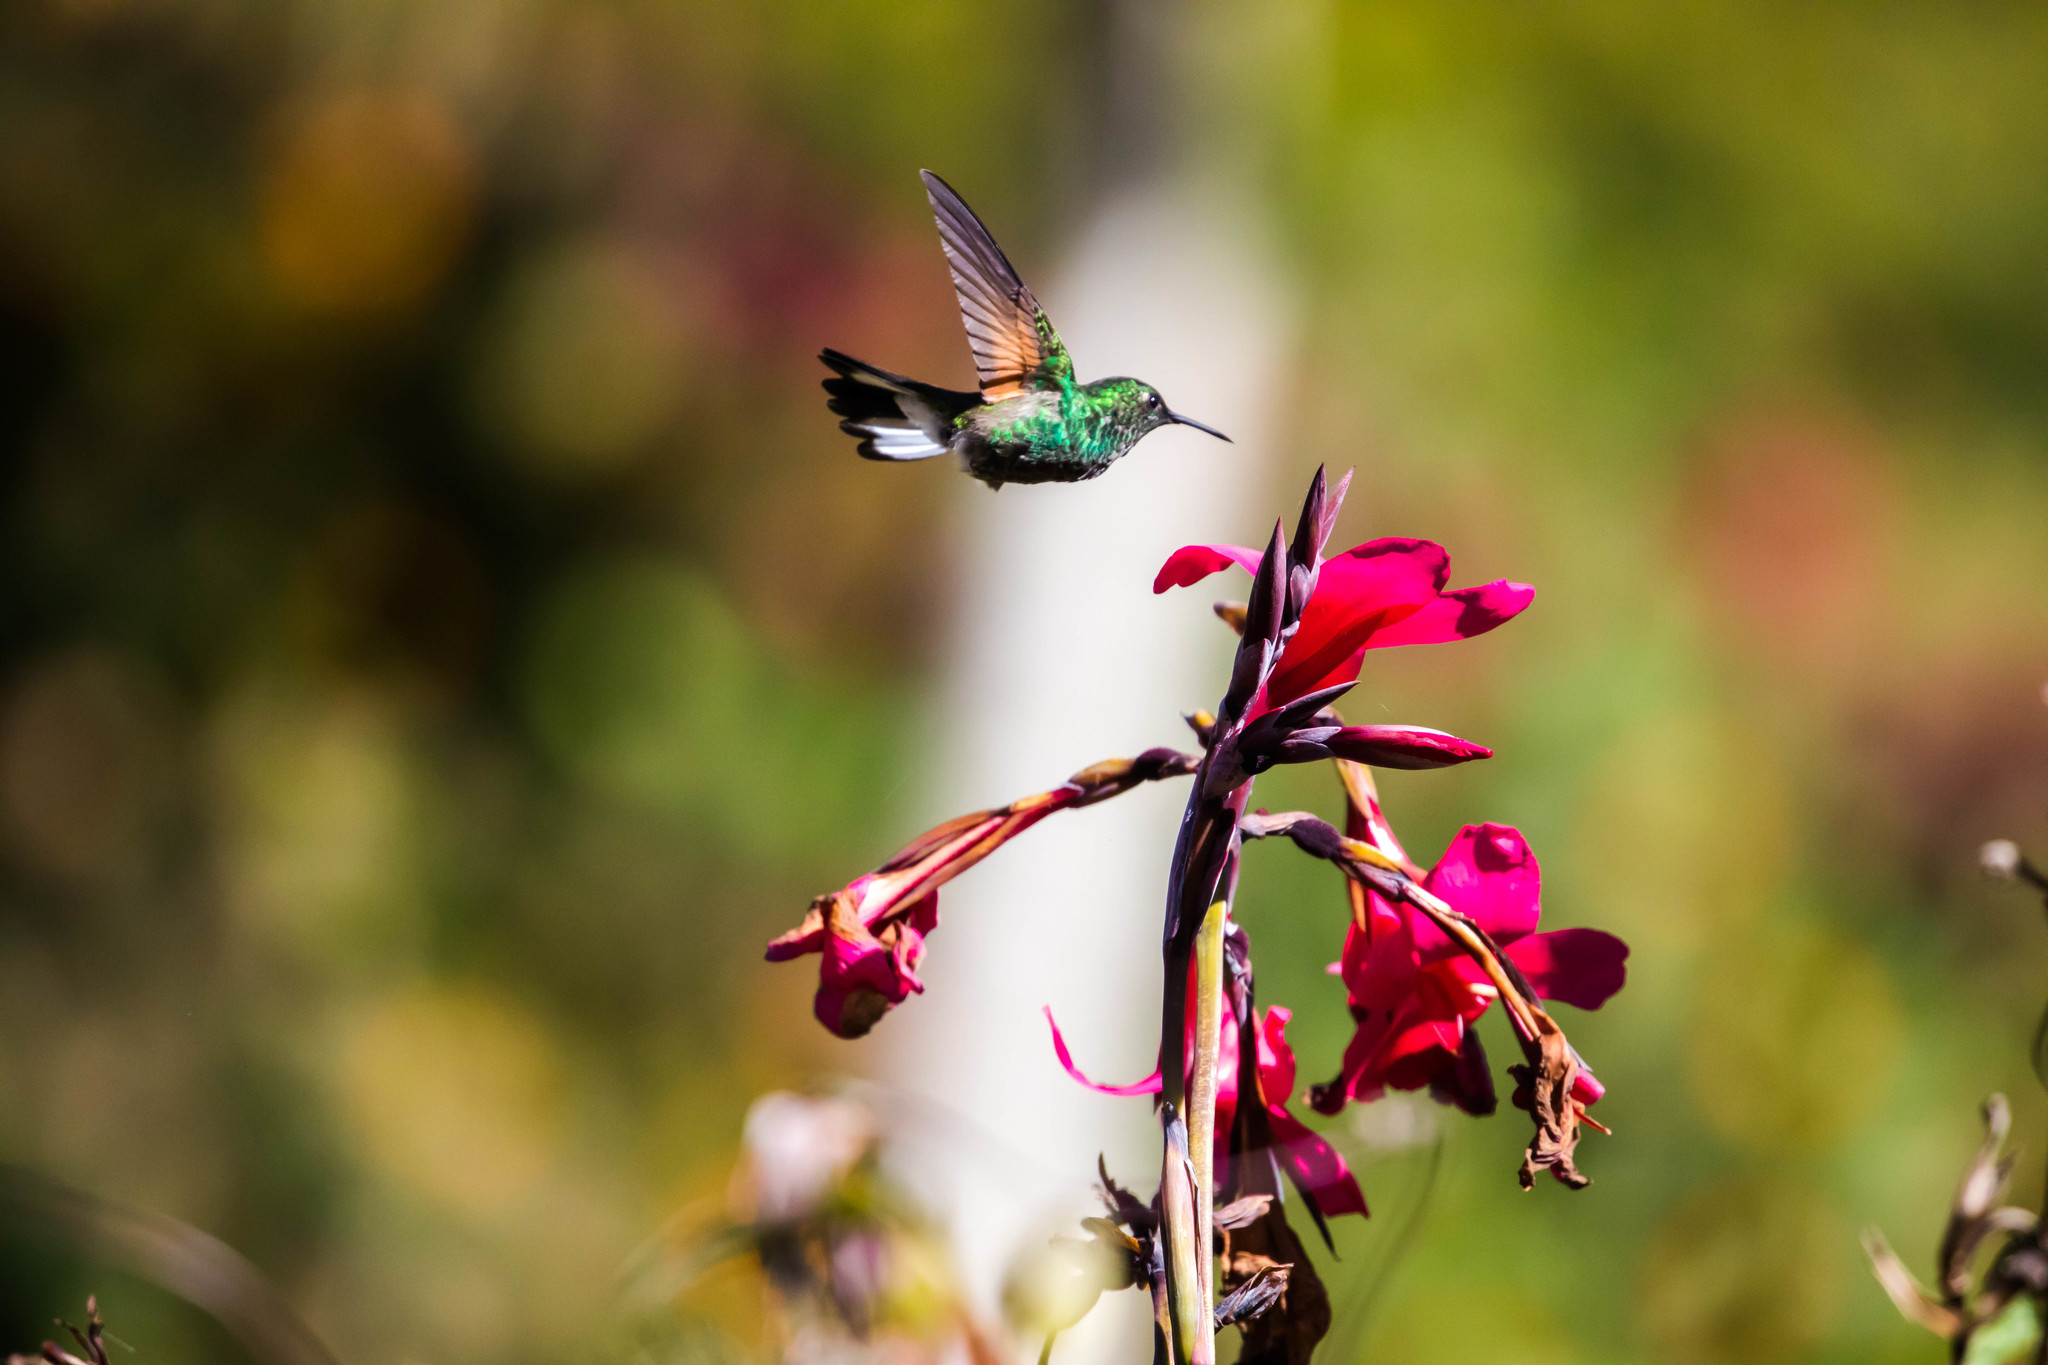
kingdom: Animalia
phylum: Chordata
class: Aves
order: Apodiformes
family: Trochilidae
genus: Eupherusa
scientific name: Eupherusa eximia
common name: Stripe-tailed hummingbird
